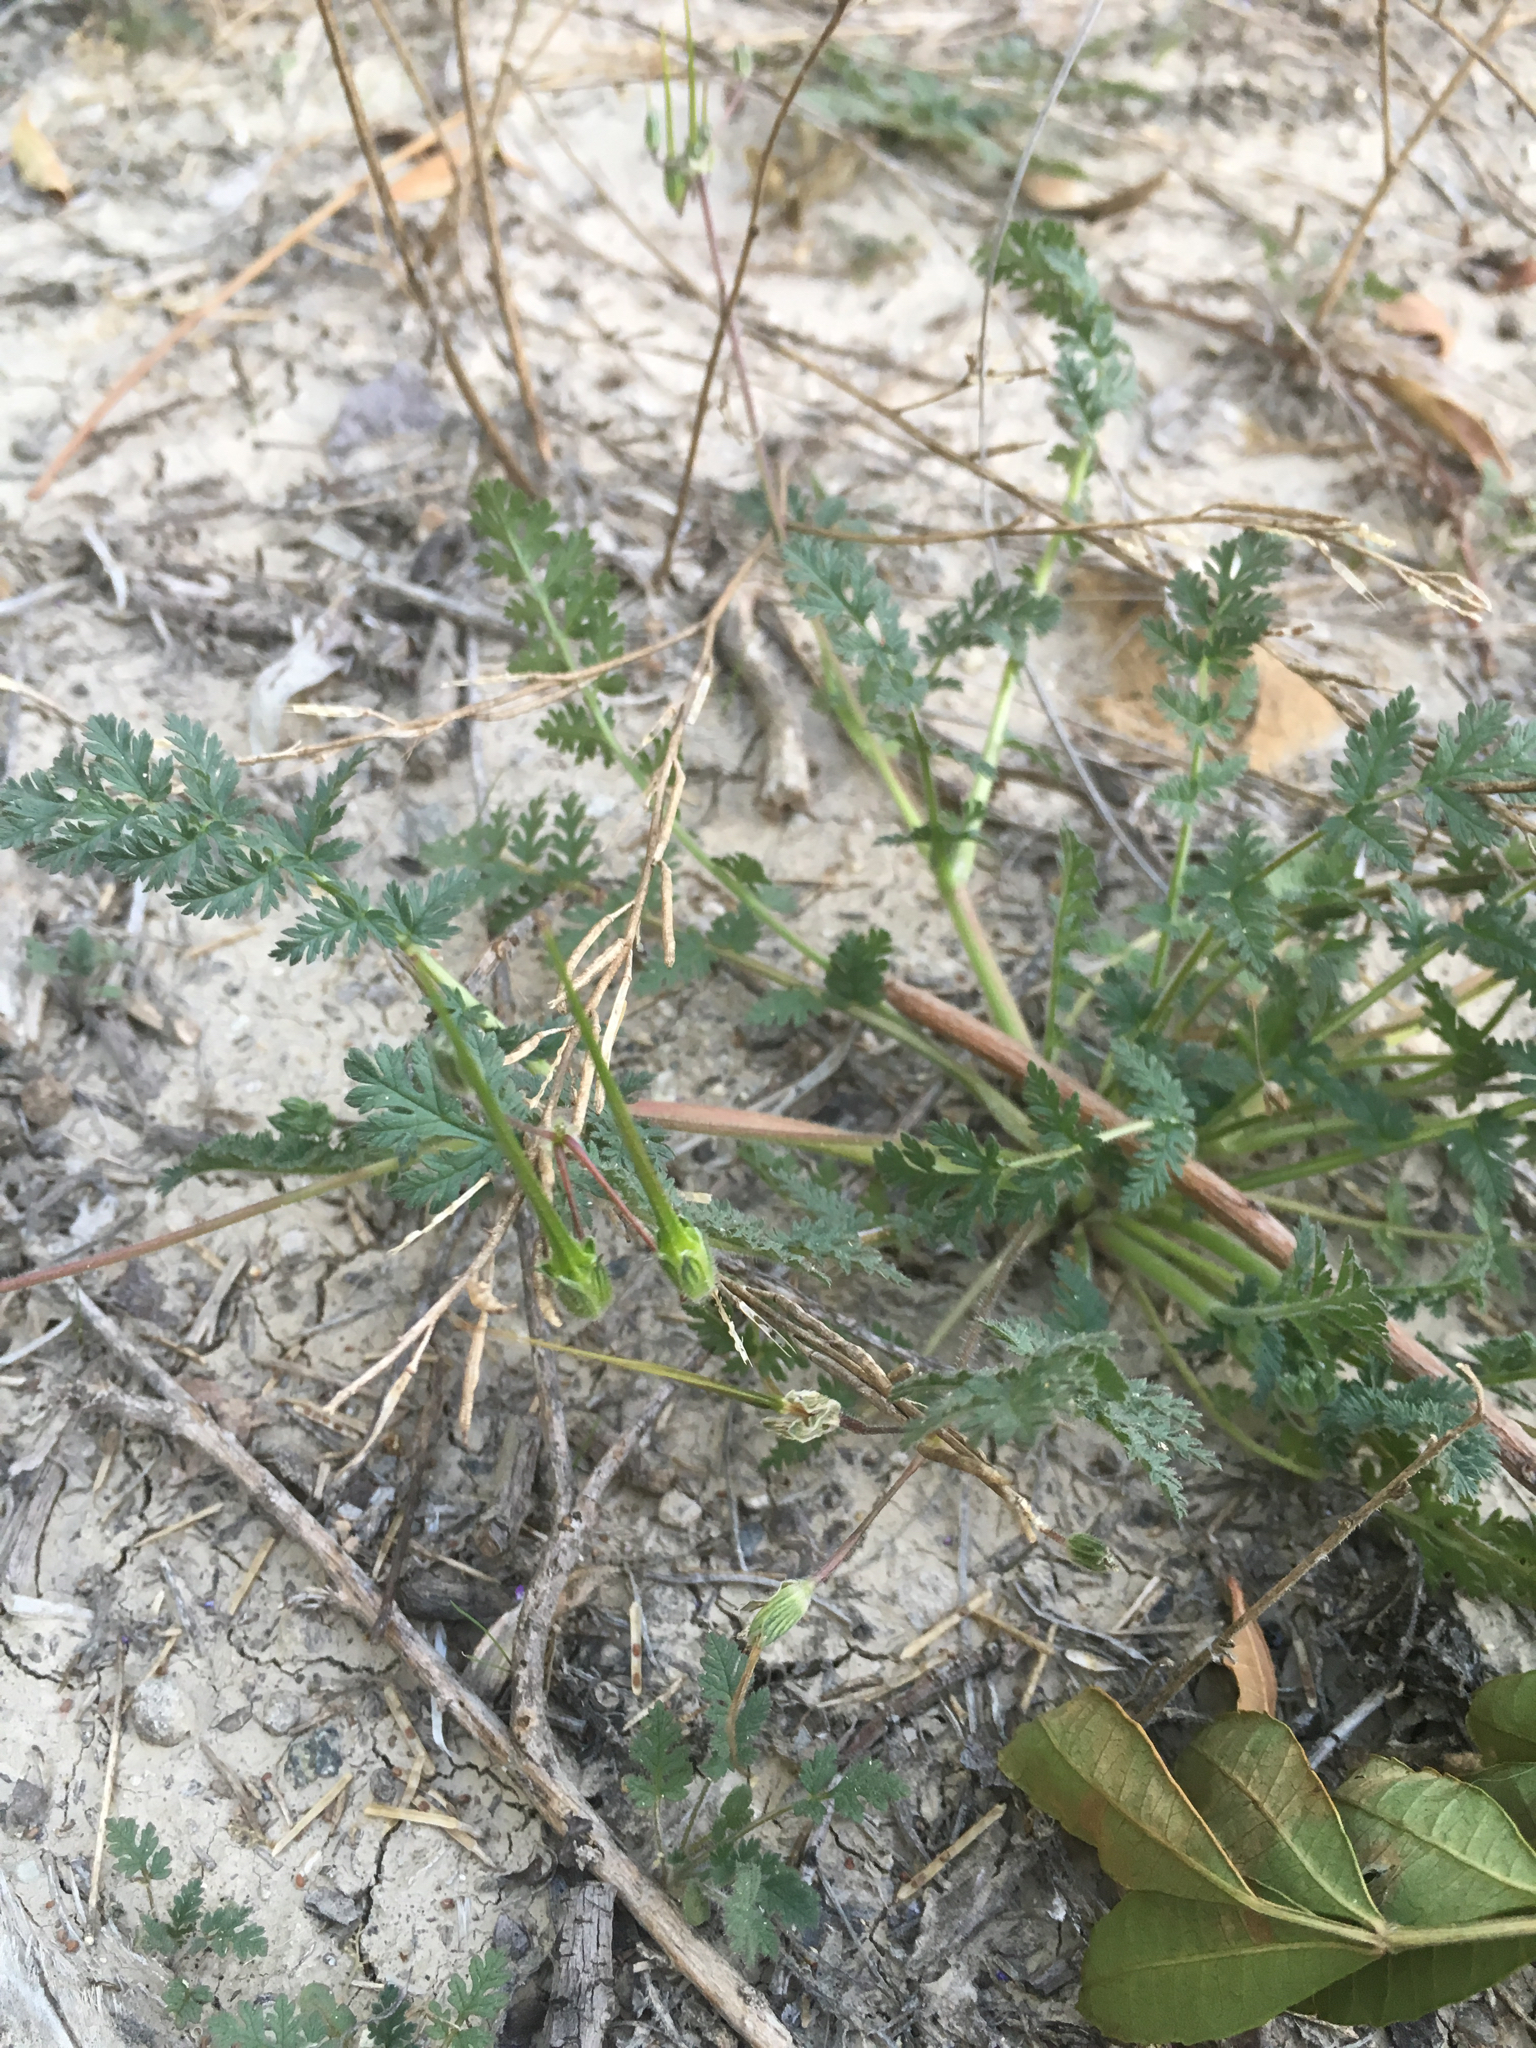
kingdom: Plantae
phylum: Tracheophyta
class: Magnoliopsida
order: Geraniales
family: Geraniaceae
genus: Erodium
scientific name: Erodium cicutarium
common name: Common stork's-bill
